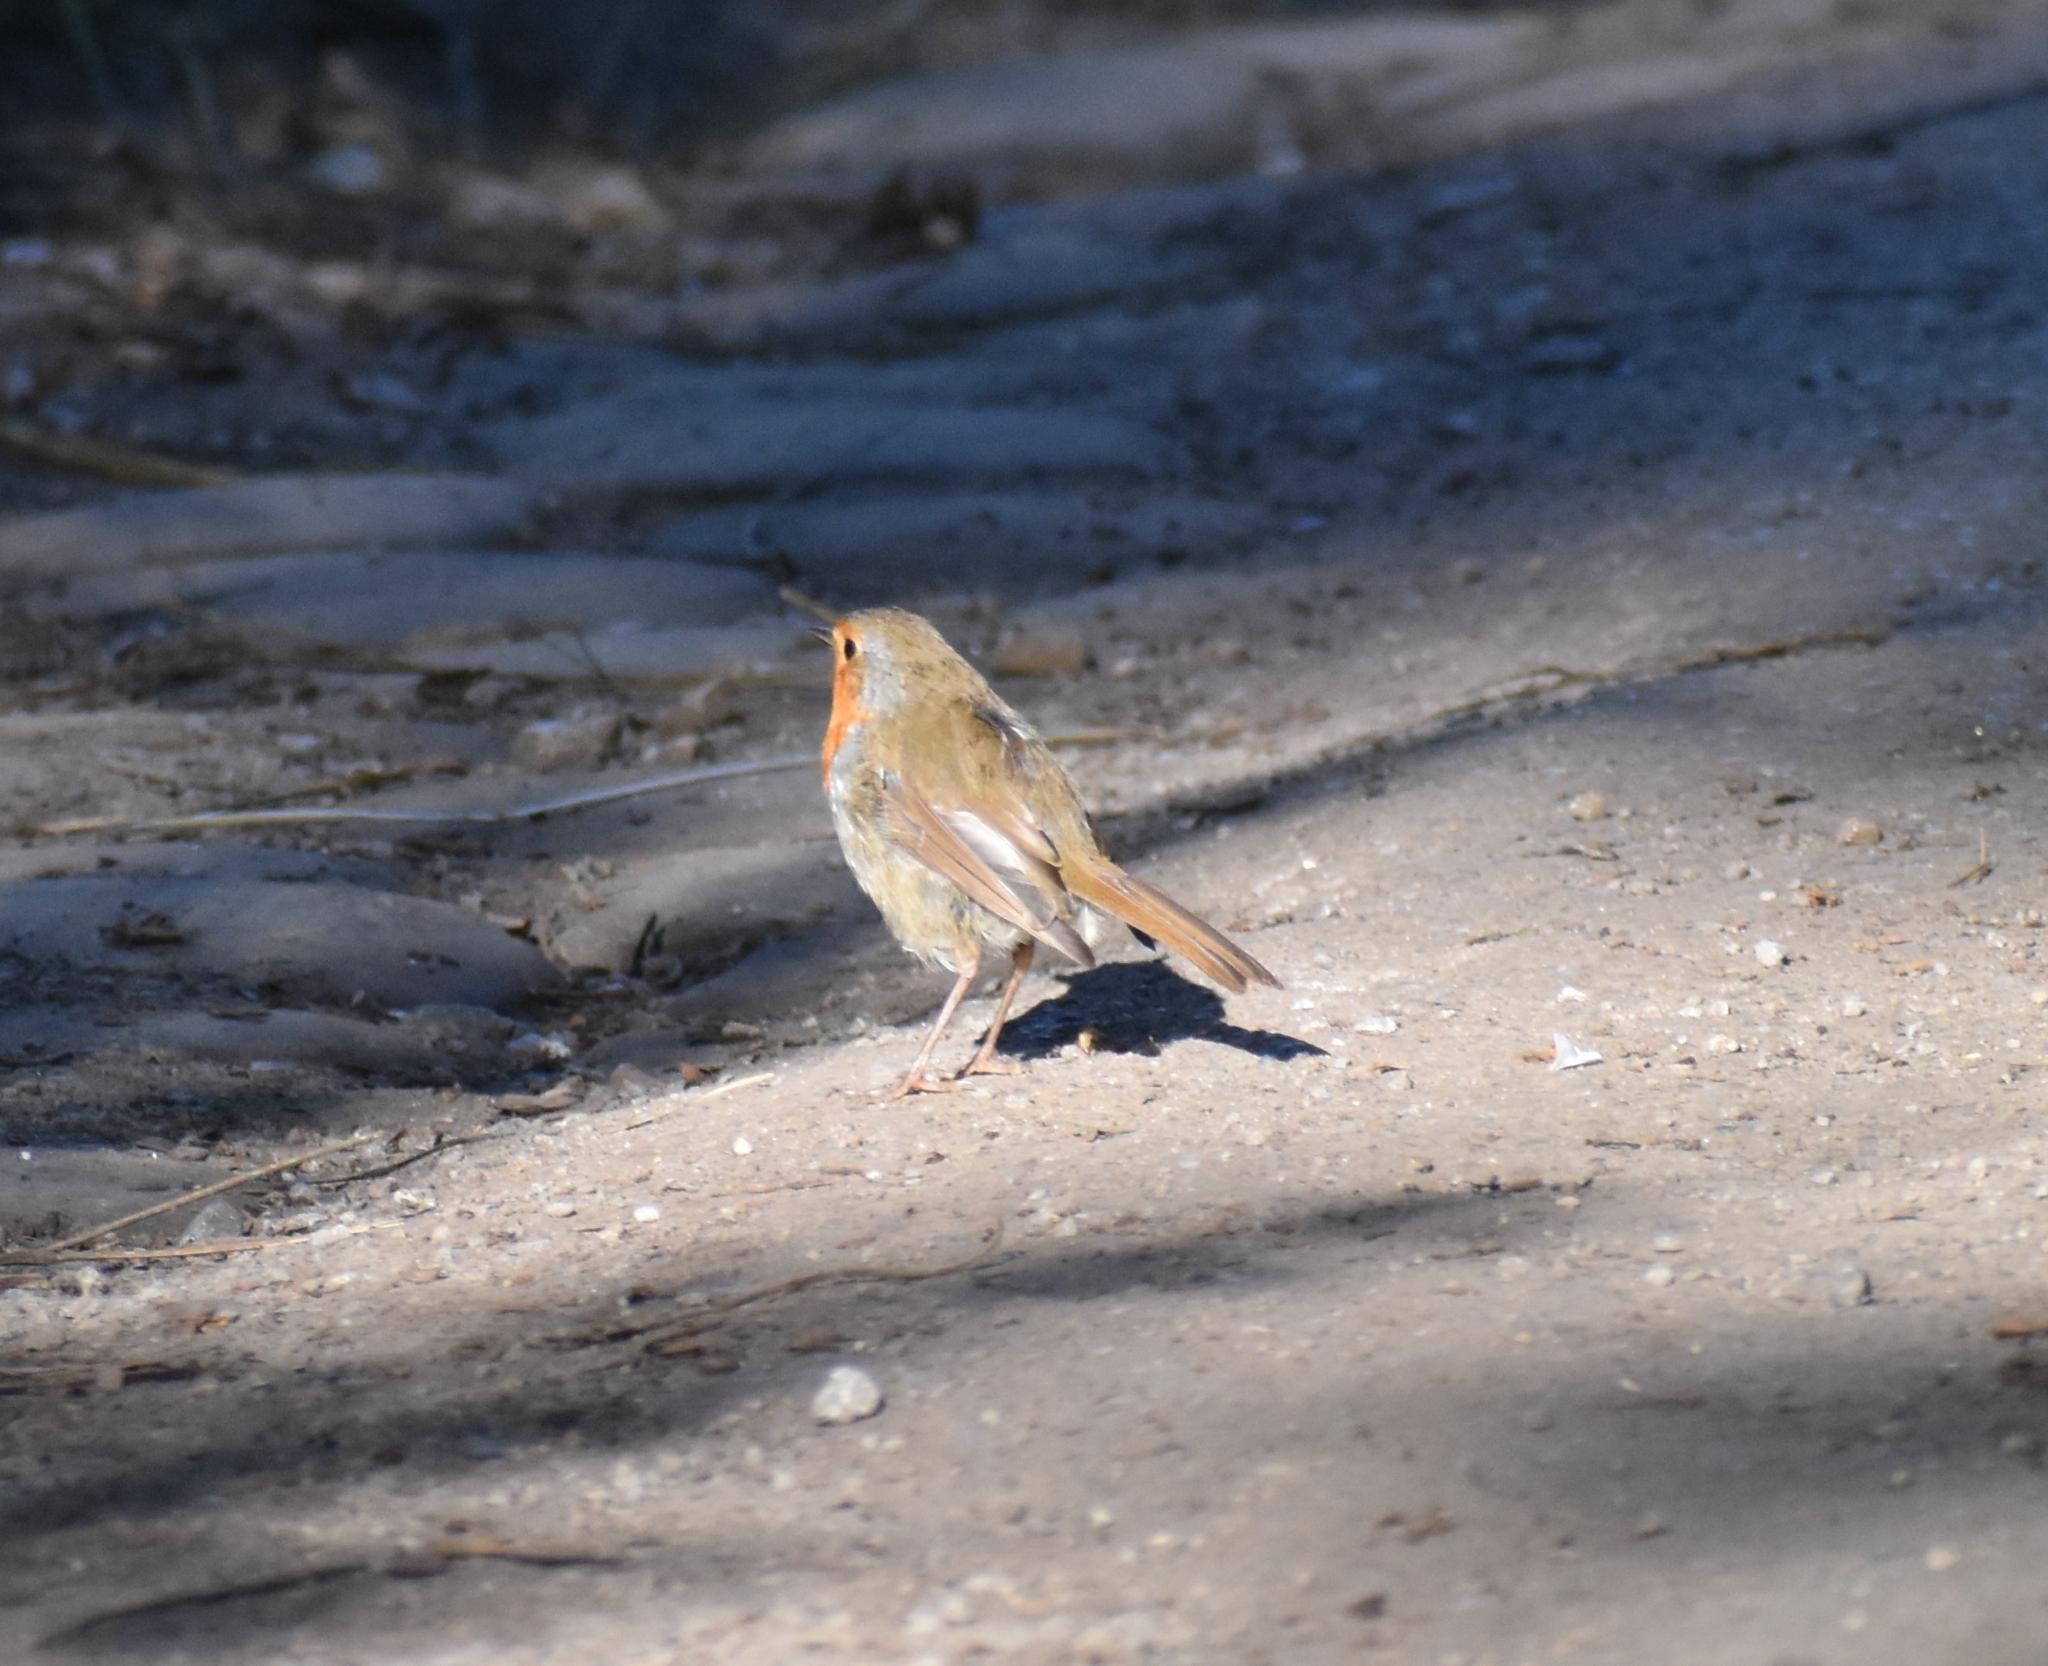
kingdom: Animalia
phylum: Chordata
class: Aves
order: Passeriformes
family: Muscicapidae
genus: Erithacus
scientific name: Erithacus rubecula
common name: European robin
